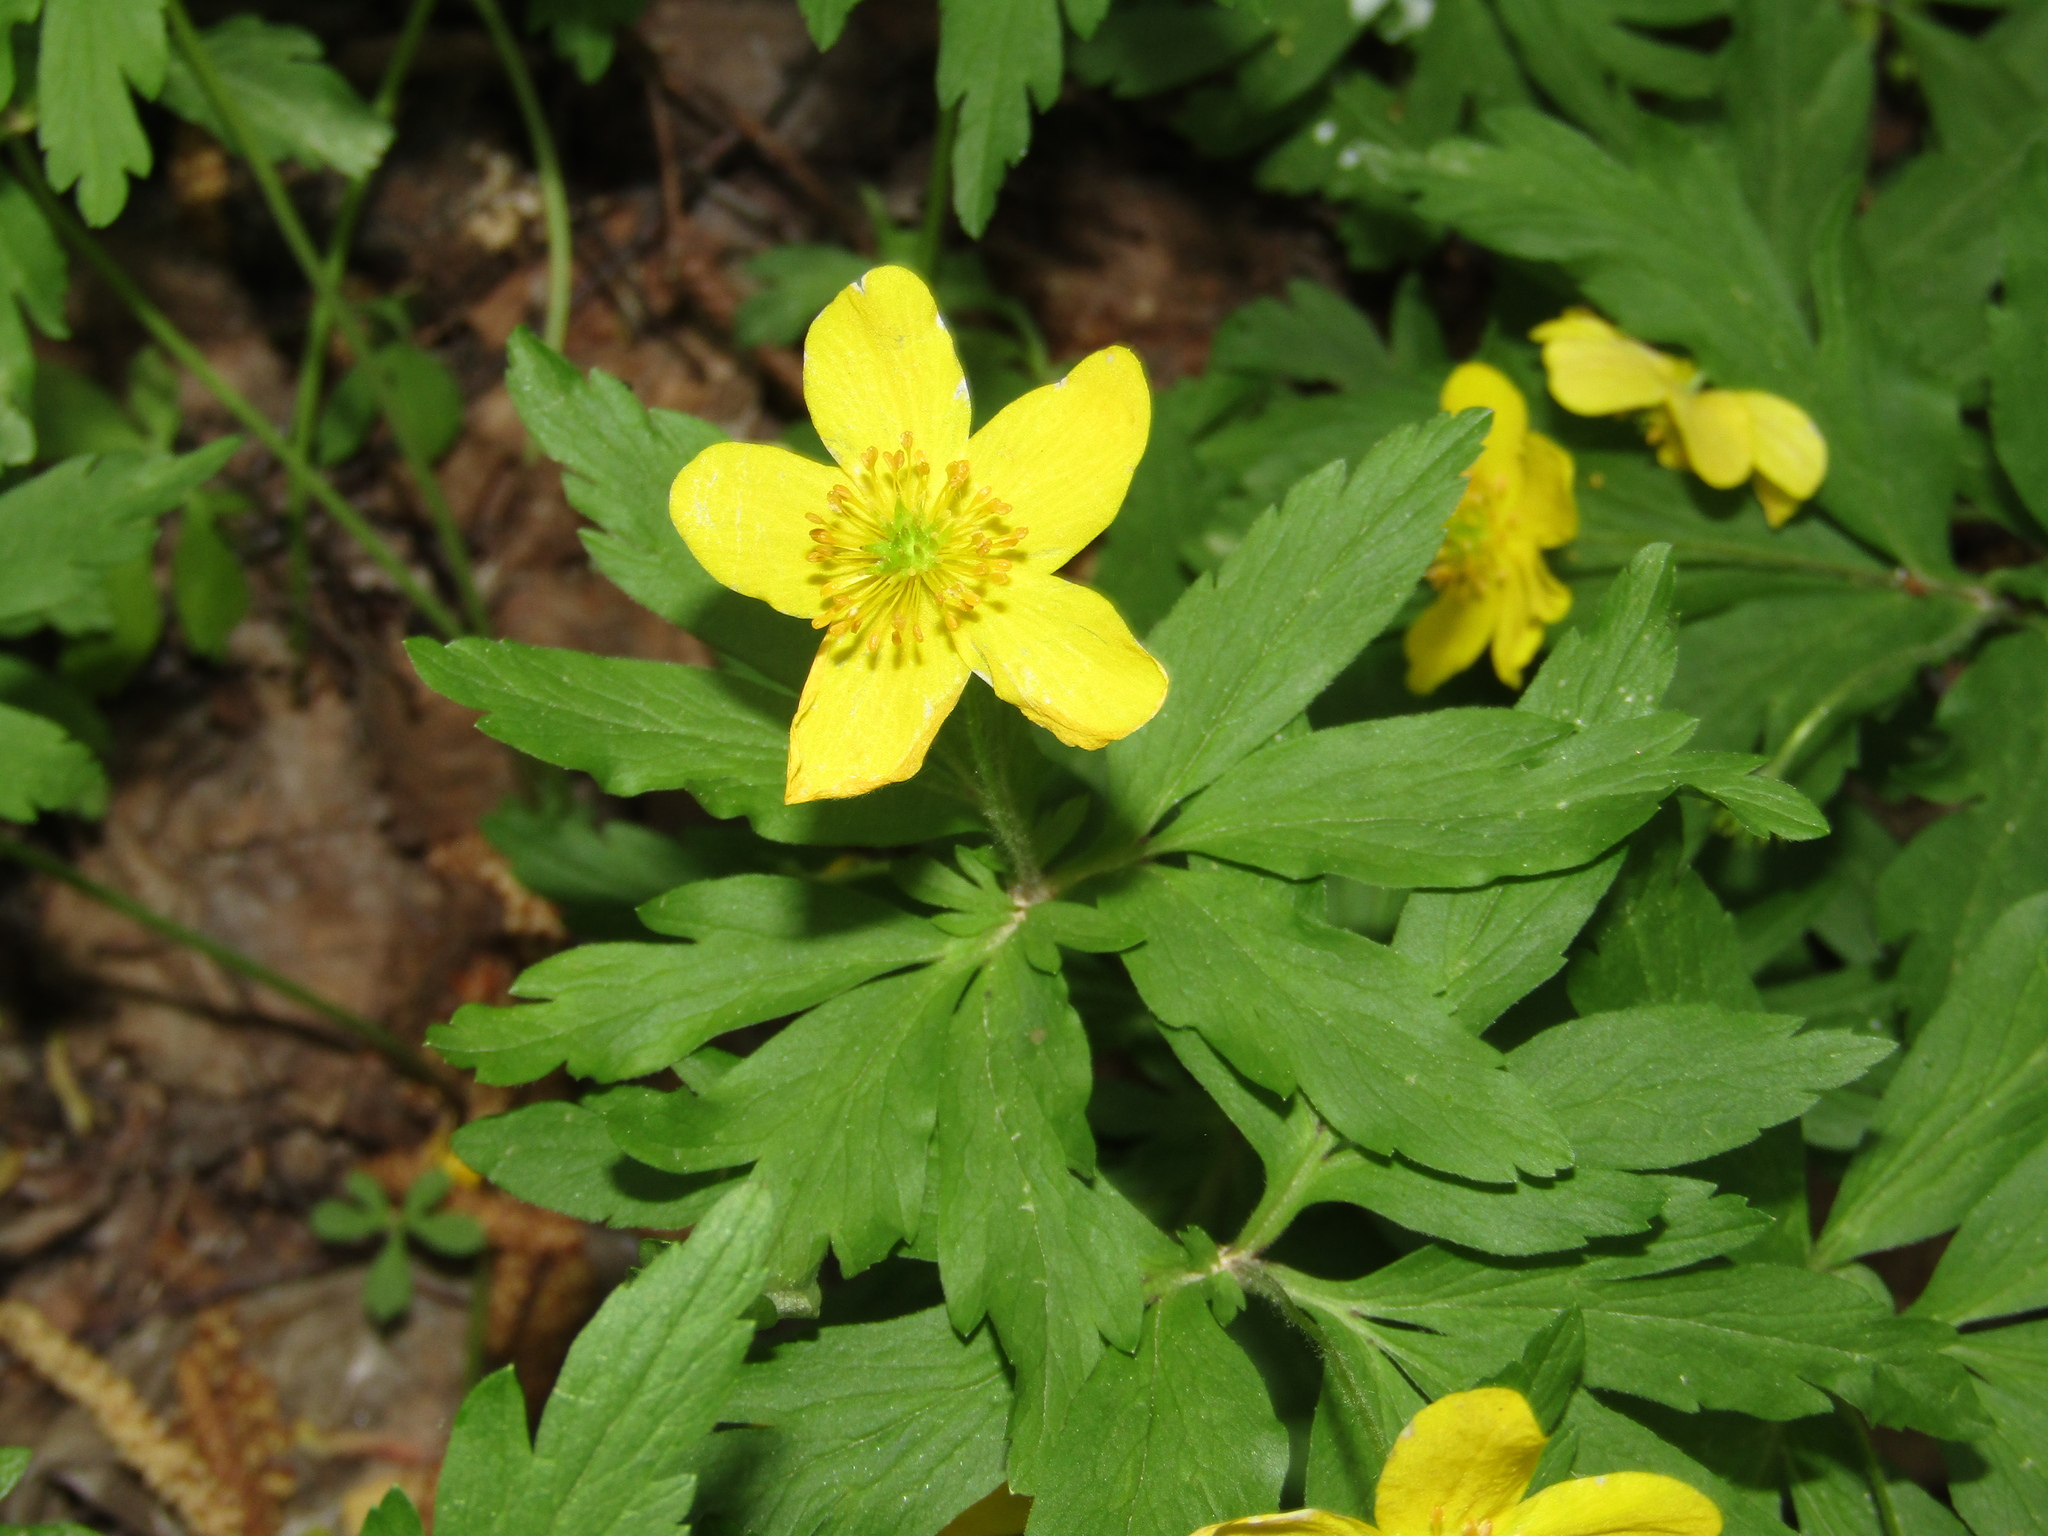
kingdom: Plantae
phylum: Tracheophyta
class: Magnoliopsida
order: Ranunculales
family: Ranunculaceae
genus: Anemone
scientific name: Anemone ranunculoides
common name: Yellow anemone
